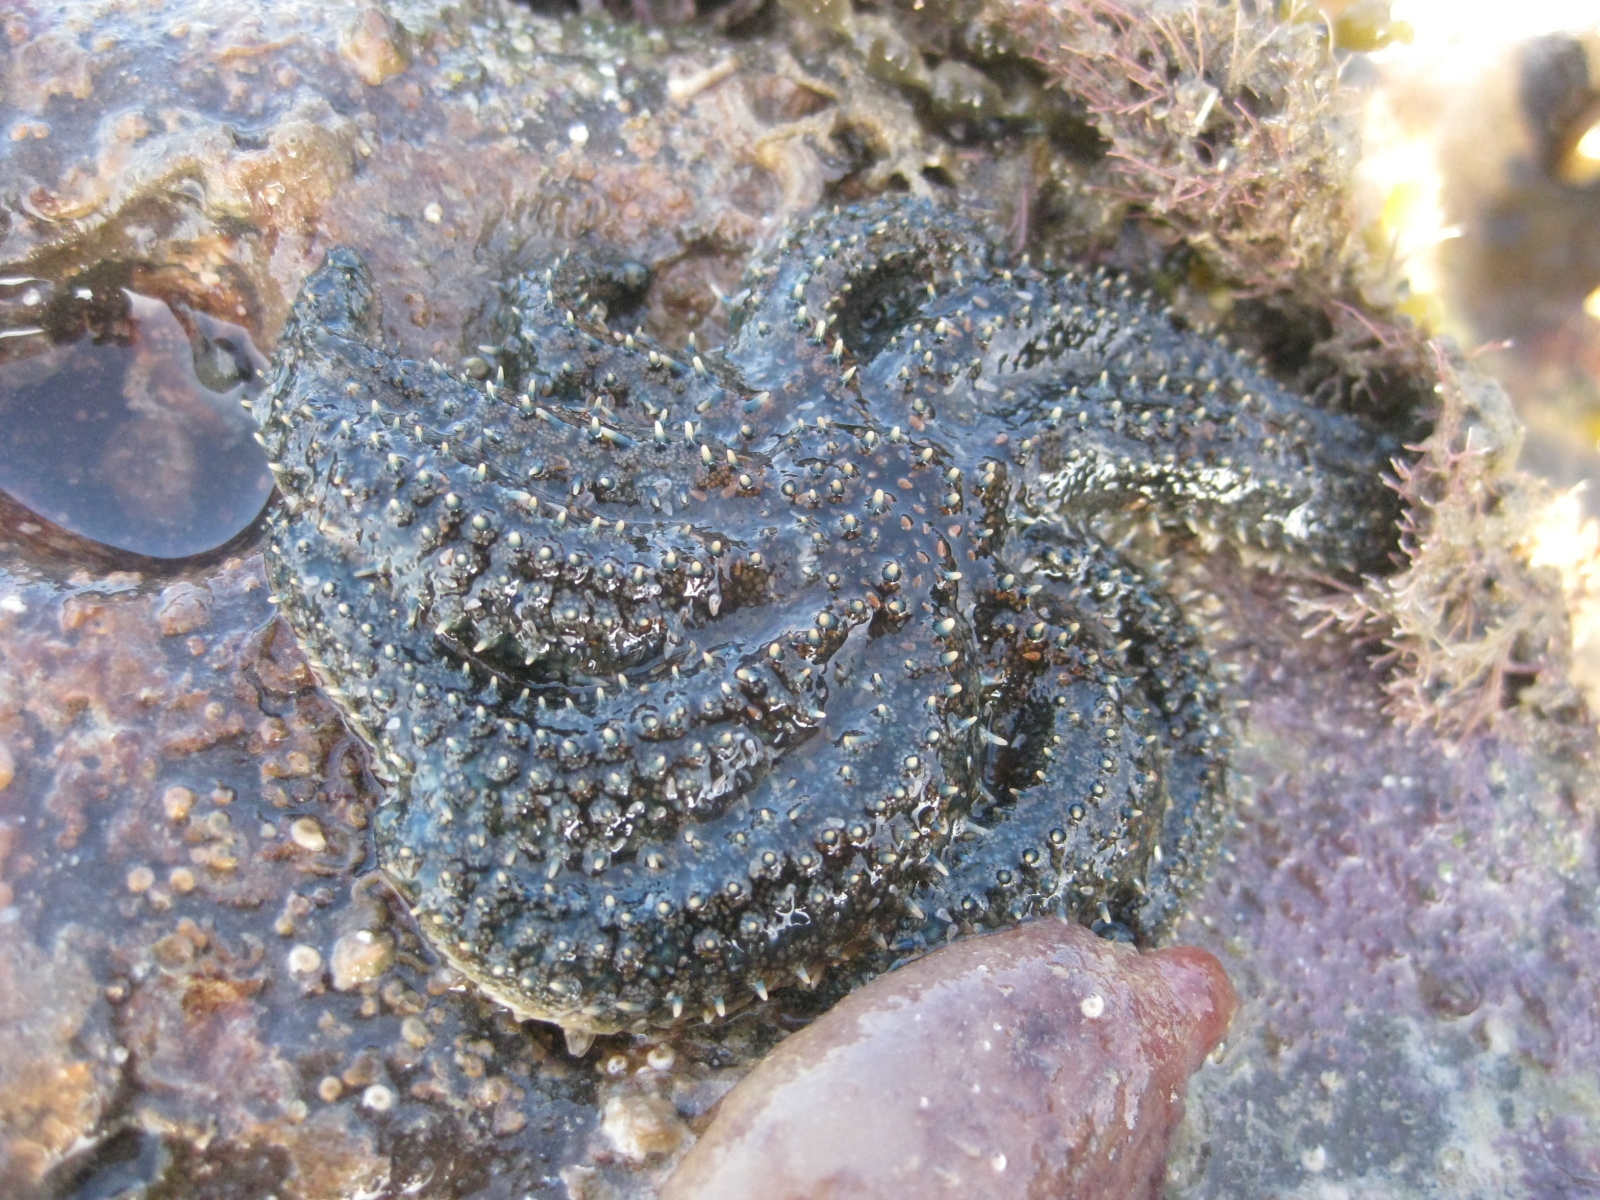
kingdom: Animalia
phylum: Echinodermata
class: Asteroidea
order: Forcipulatida
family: Asteriidae
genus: Coscinasterias
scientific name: Coscinasterias muricata
